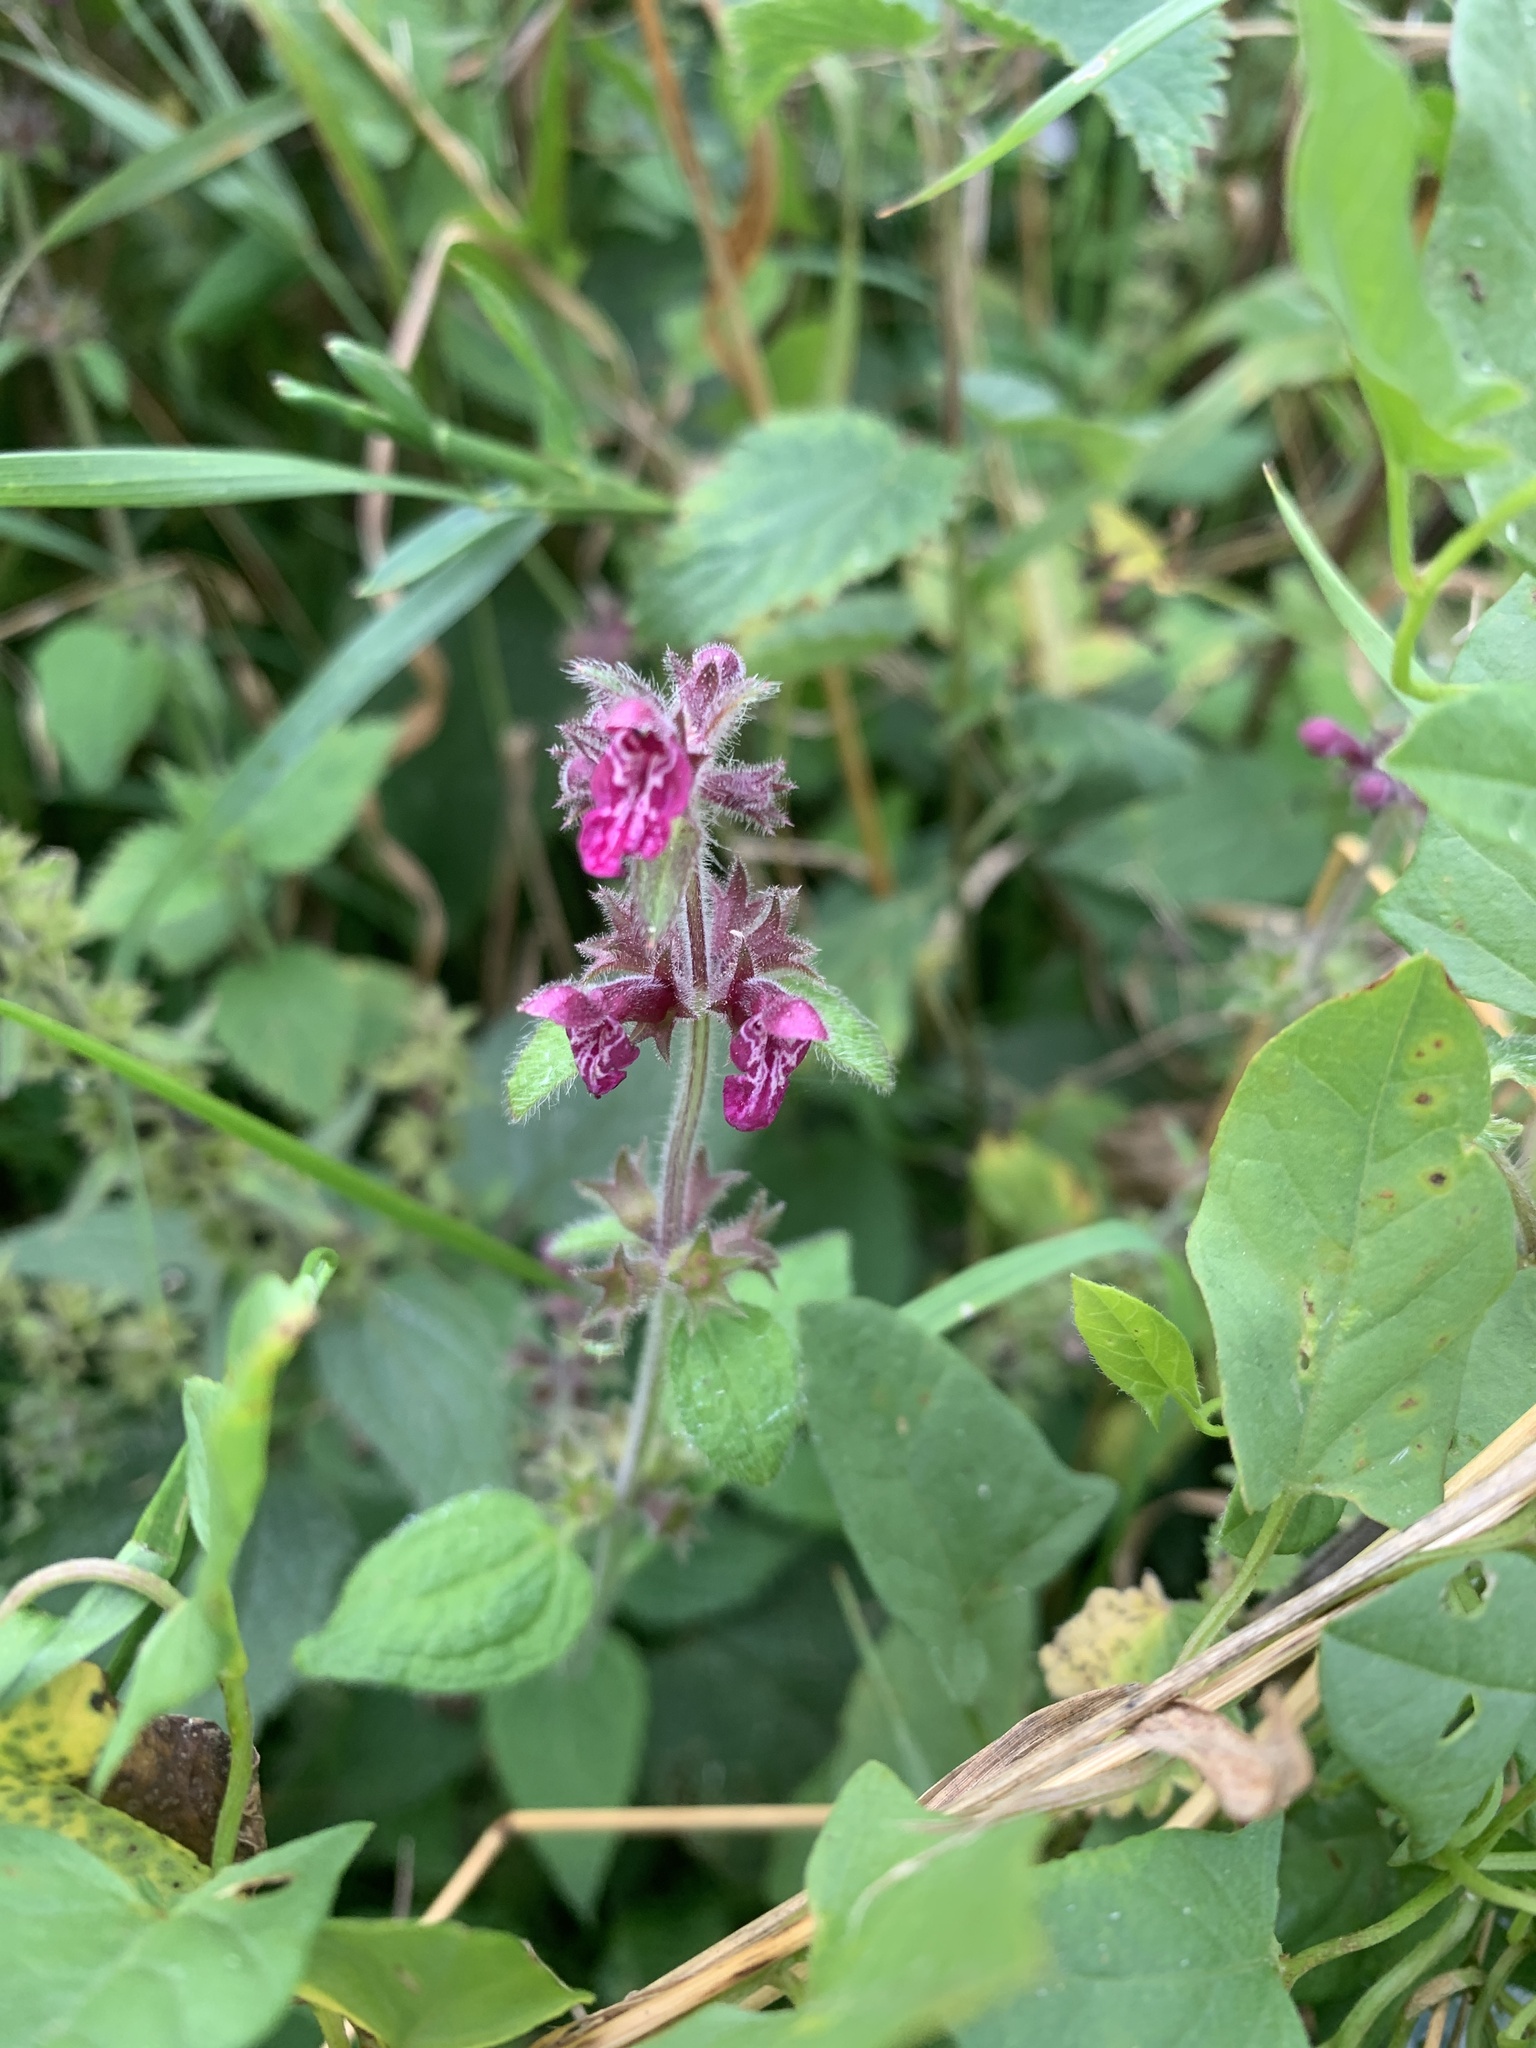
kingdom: Plantae
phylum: Tracheophyta
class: Magnoliopsida
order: Lamiales
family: Lamiaceae
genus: Stachys
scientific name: Stachys sylvatica
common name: Hedge woundwort
